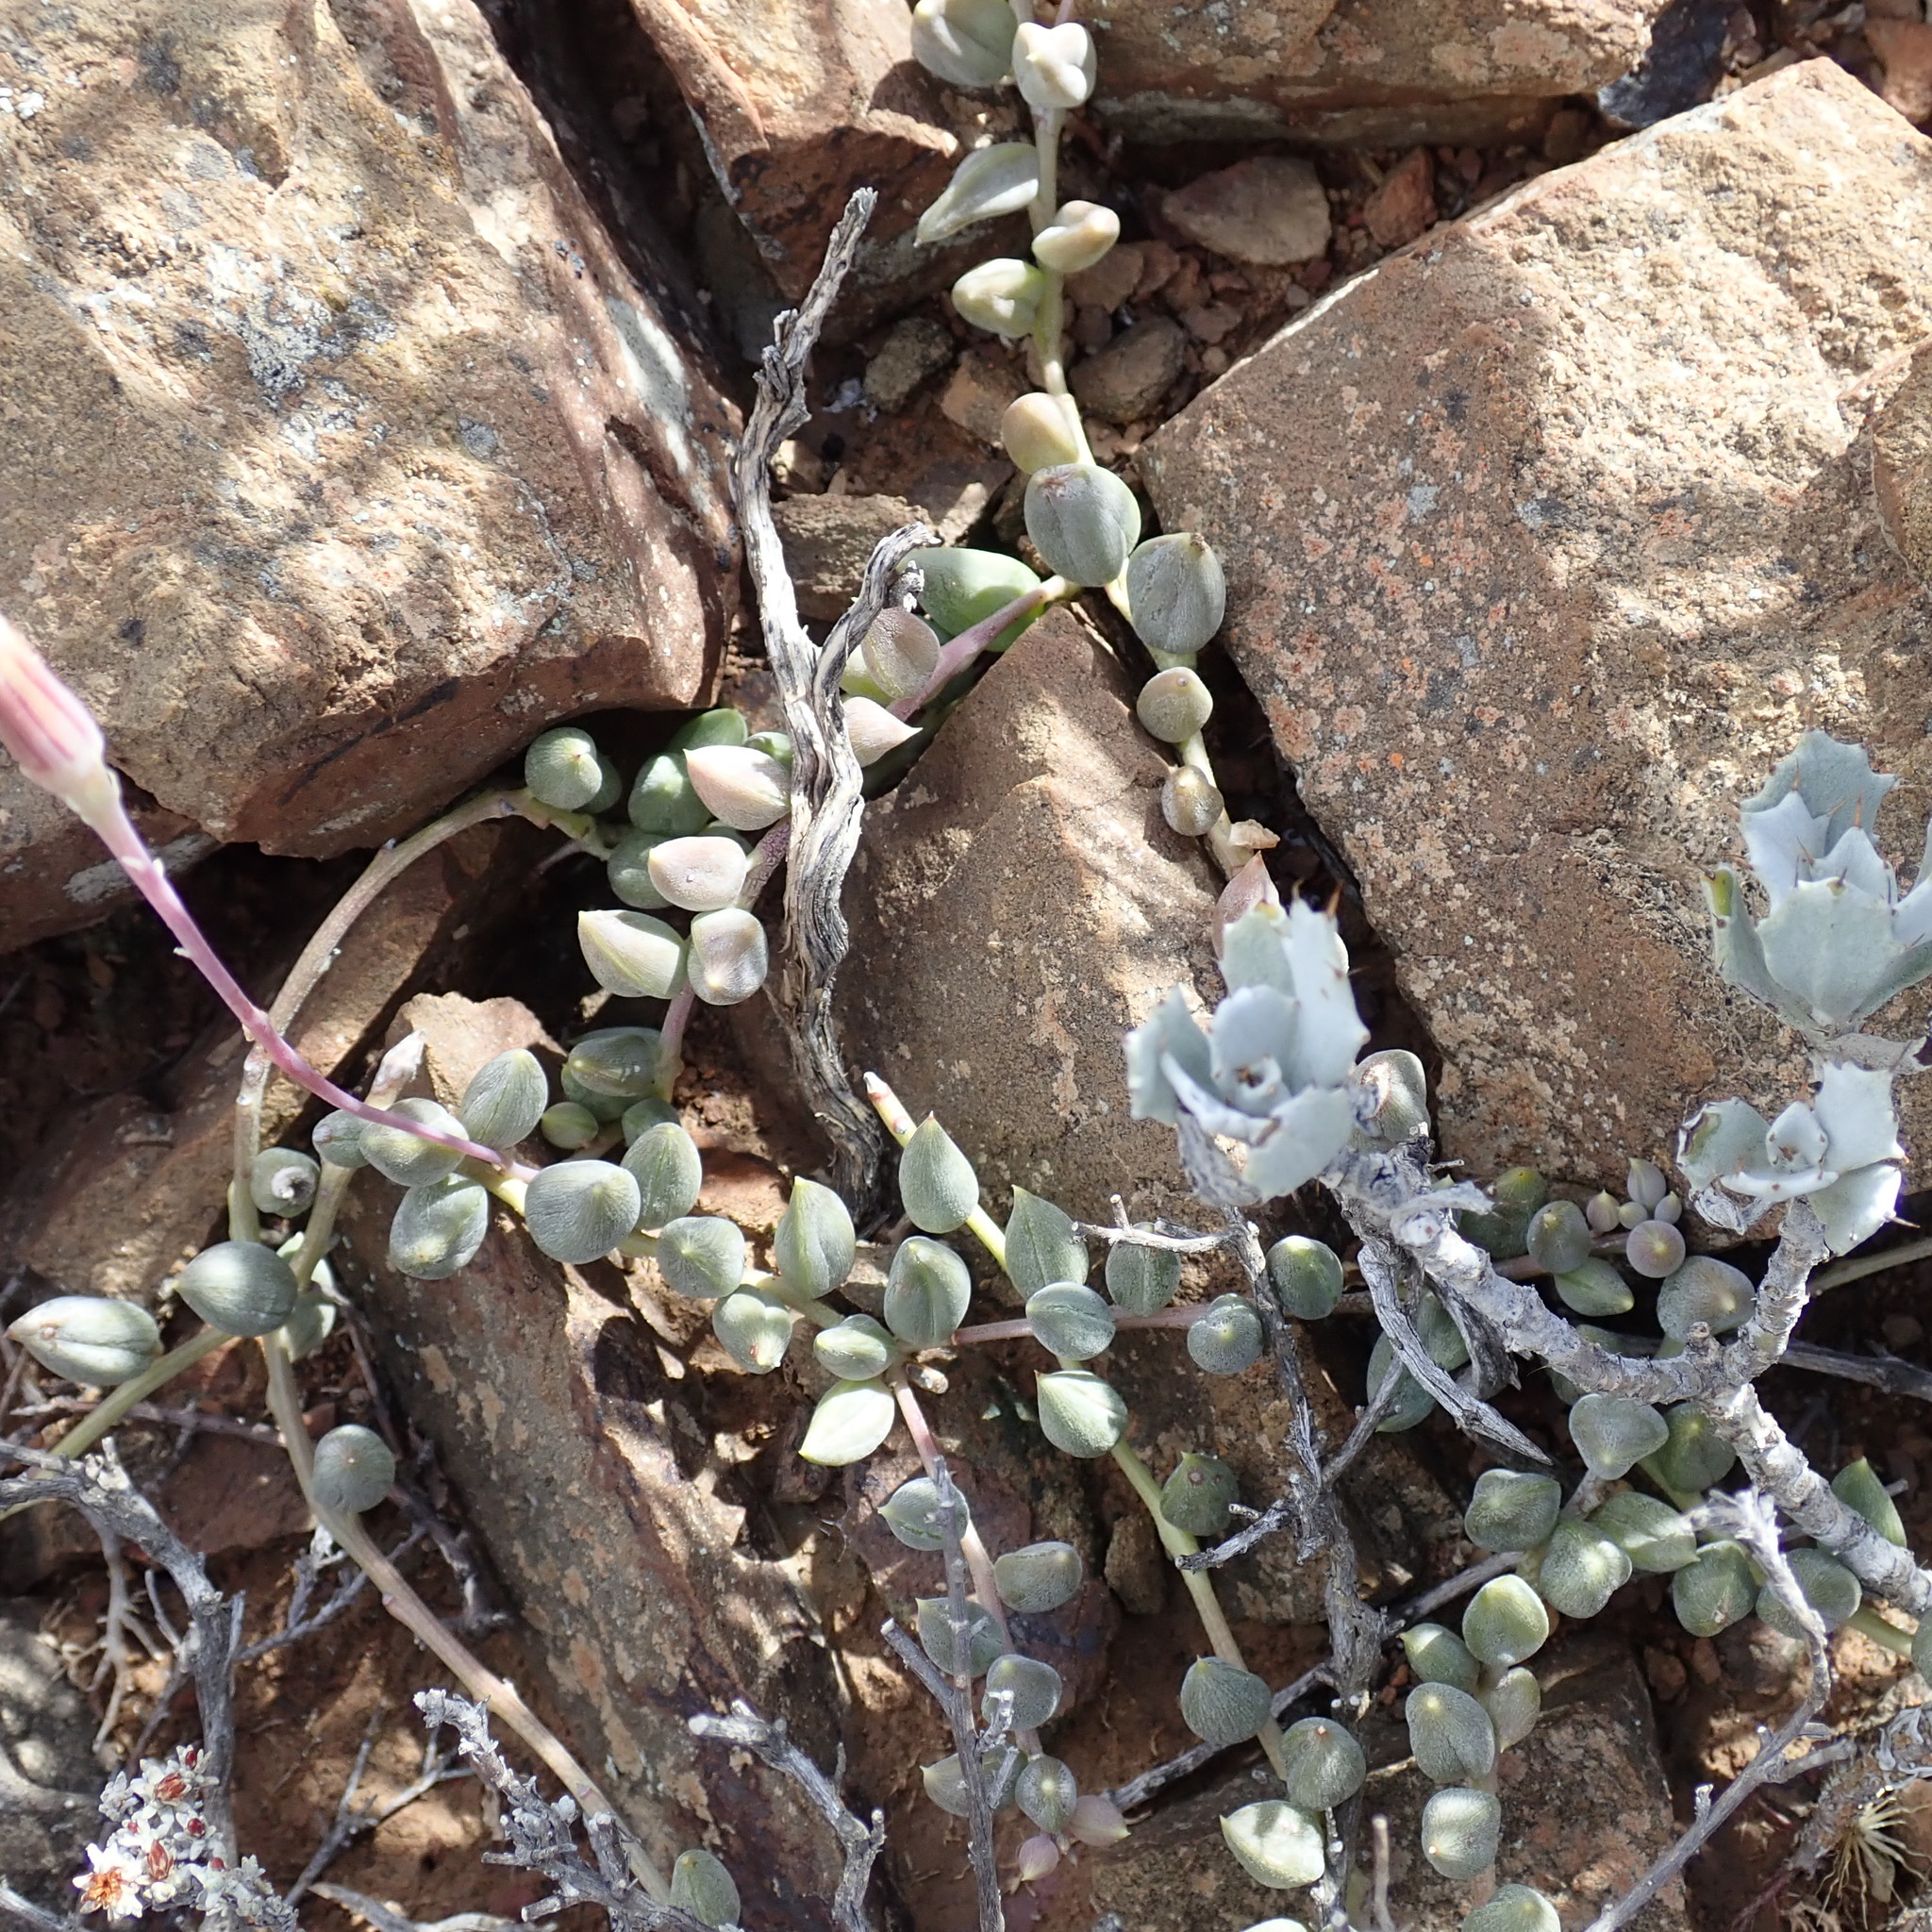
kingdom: Plantae
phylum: Tracheophyta
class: Magnoliopsida
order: Asterales
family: Asteraceae
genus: Curio
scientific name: Curio radicans
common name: Creeping-berry
